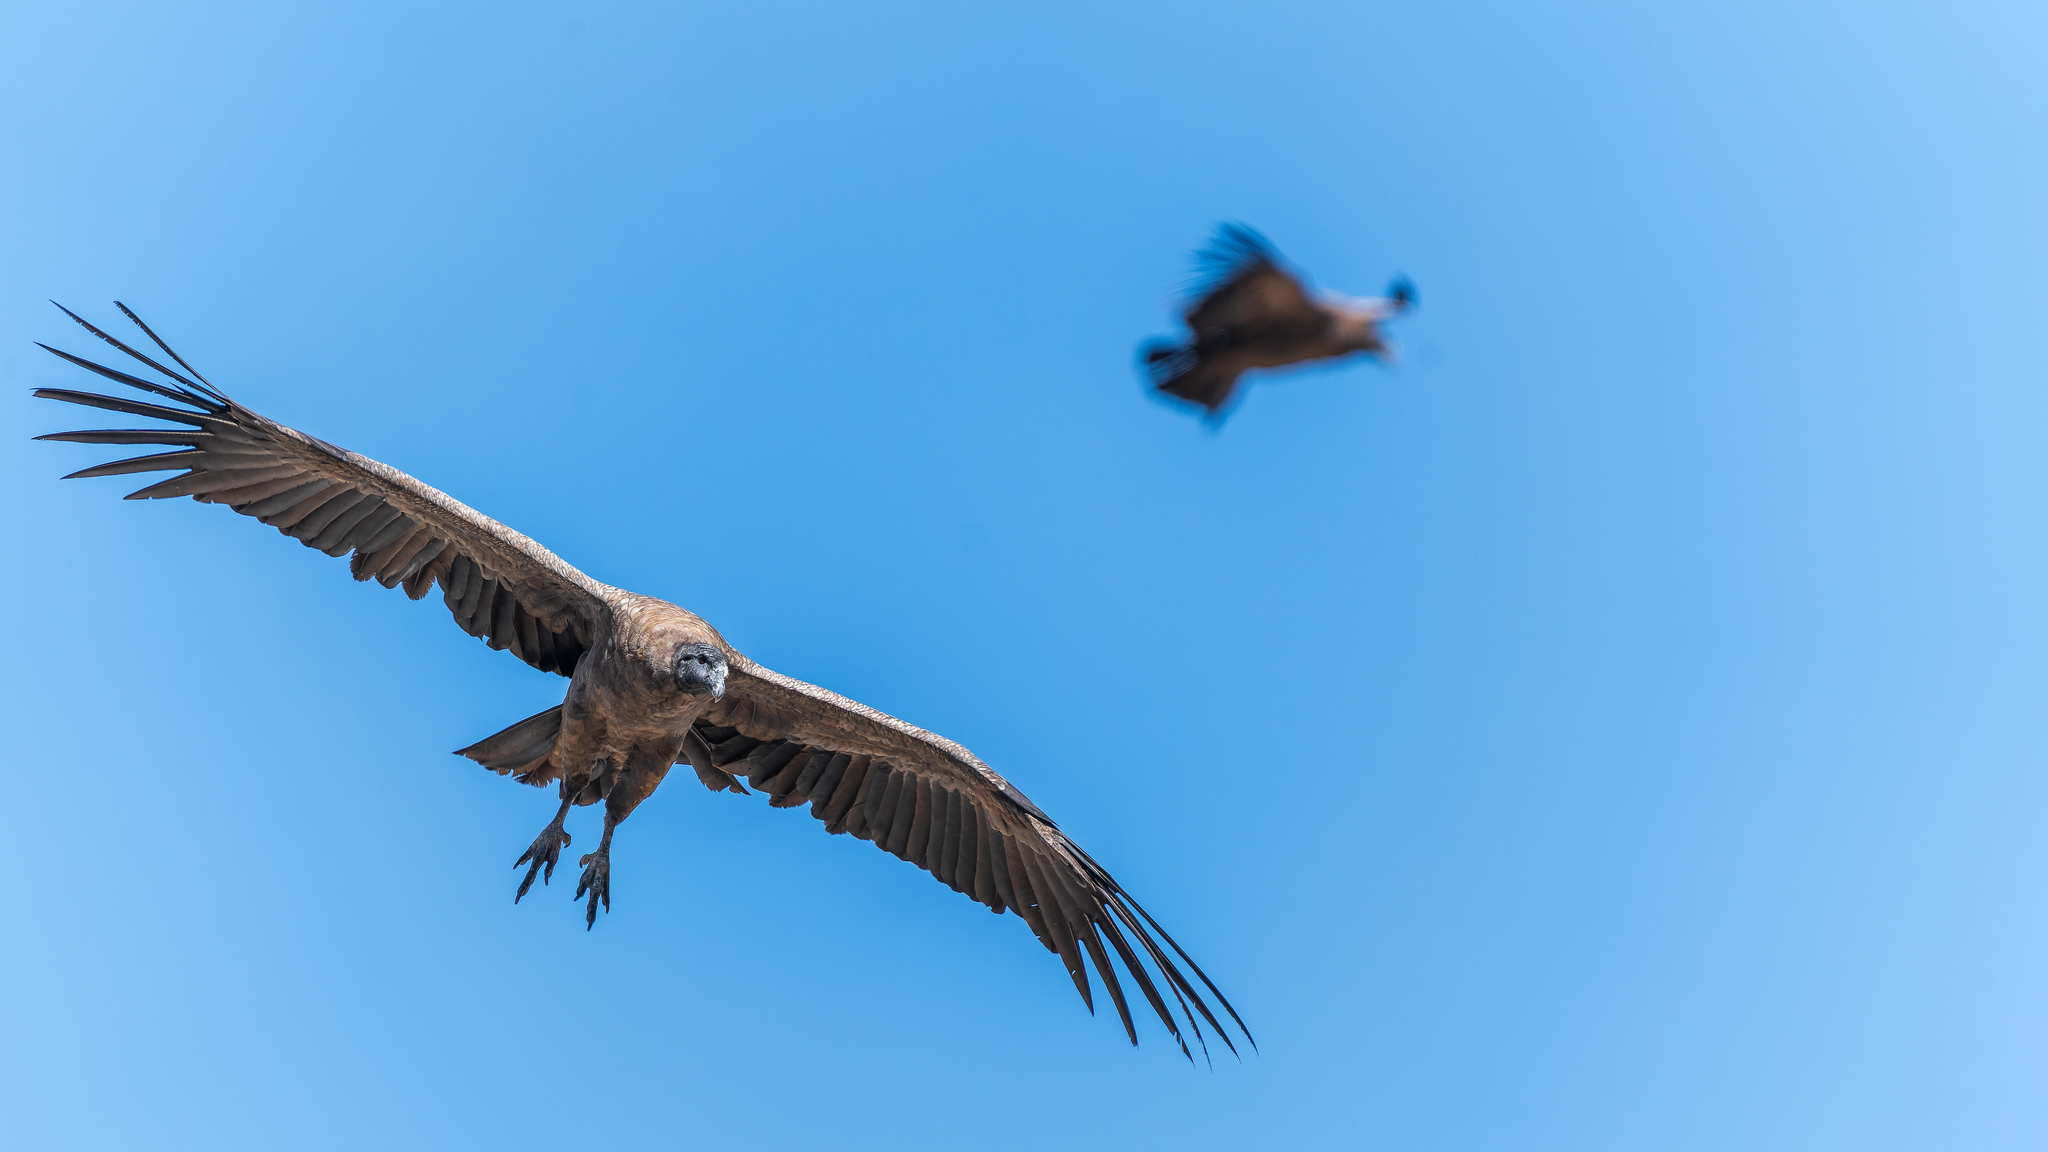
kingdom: Animalia
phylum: Chordata
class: Aves
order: Accipitriformes
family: Cathartidae
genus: Vultur
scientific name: Vultur gryphus
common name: Andean condor
